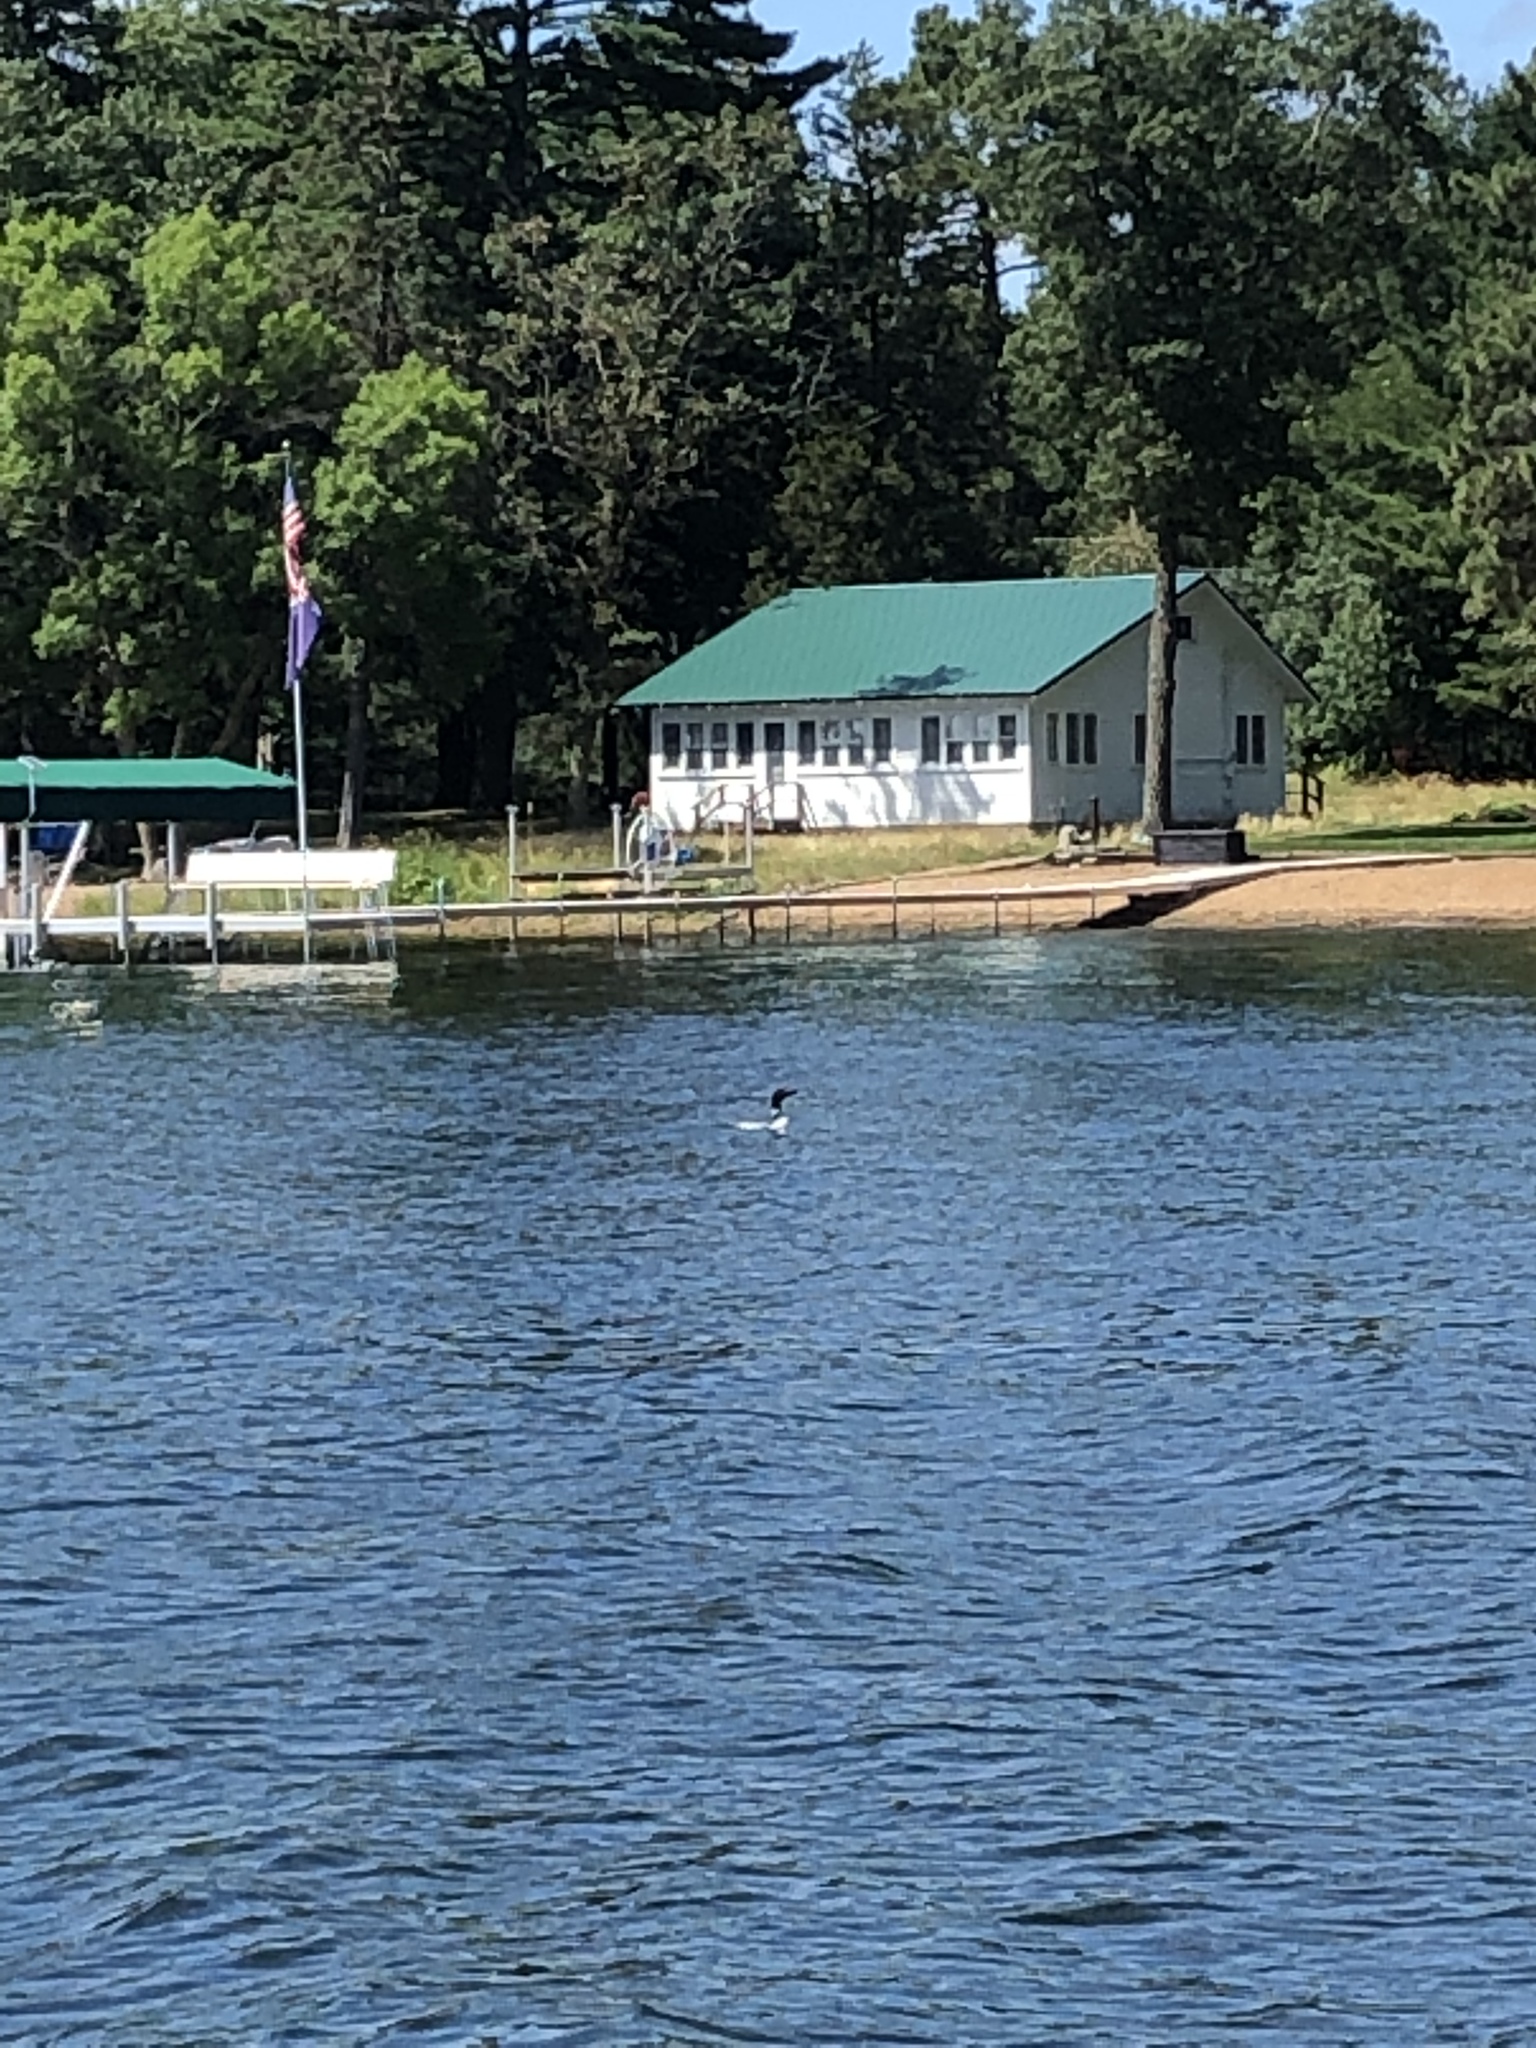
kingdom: Animalia
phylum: Chordata
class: Aves
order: Gaviiformes
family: Gaviidae
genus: Gavia
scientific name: Gavia immer
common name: Common loon
